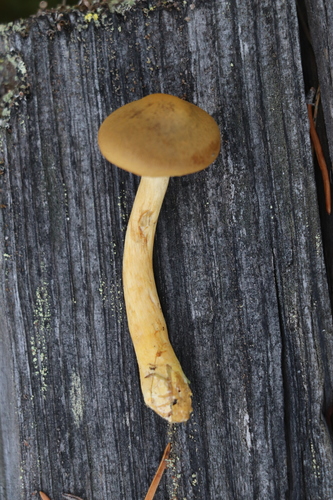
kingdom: Fungi
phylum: Basidiomycota
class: Agaricomycetes
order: Agaricales
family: Cortinariaceae
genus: Cortinarius
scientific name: Cortinarius semisanguineus
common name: Surprise webcap
